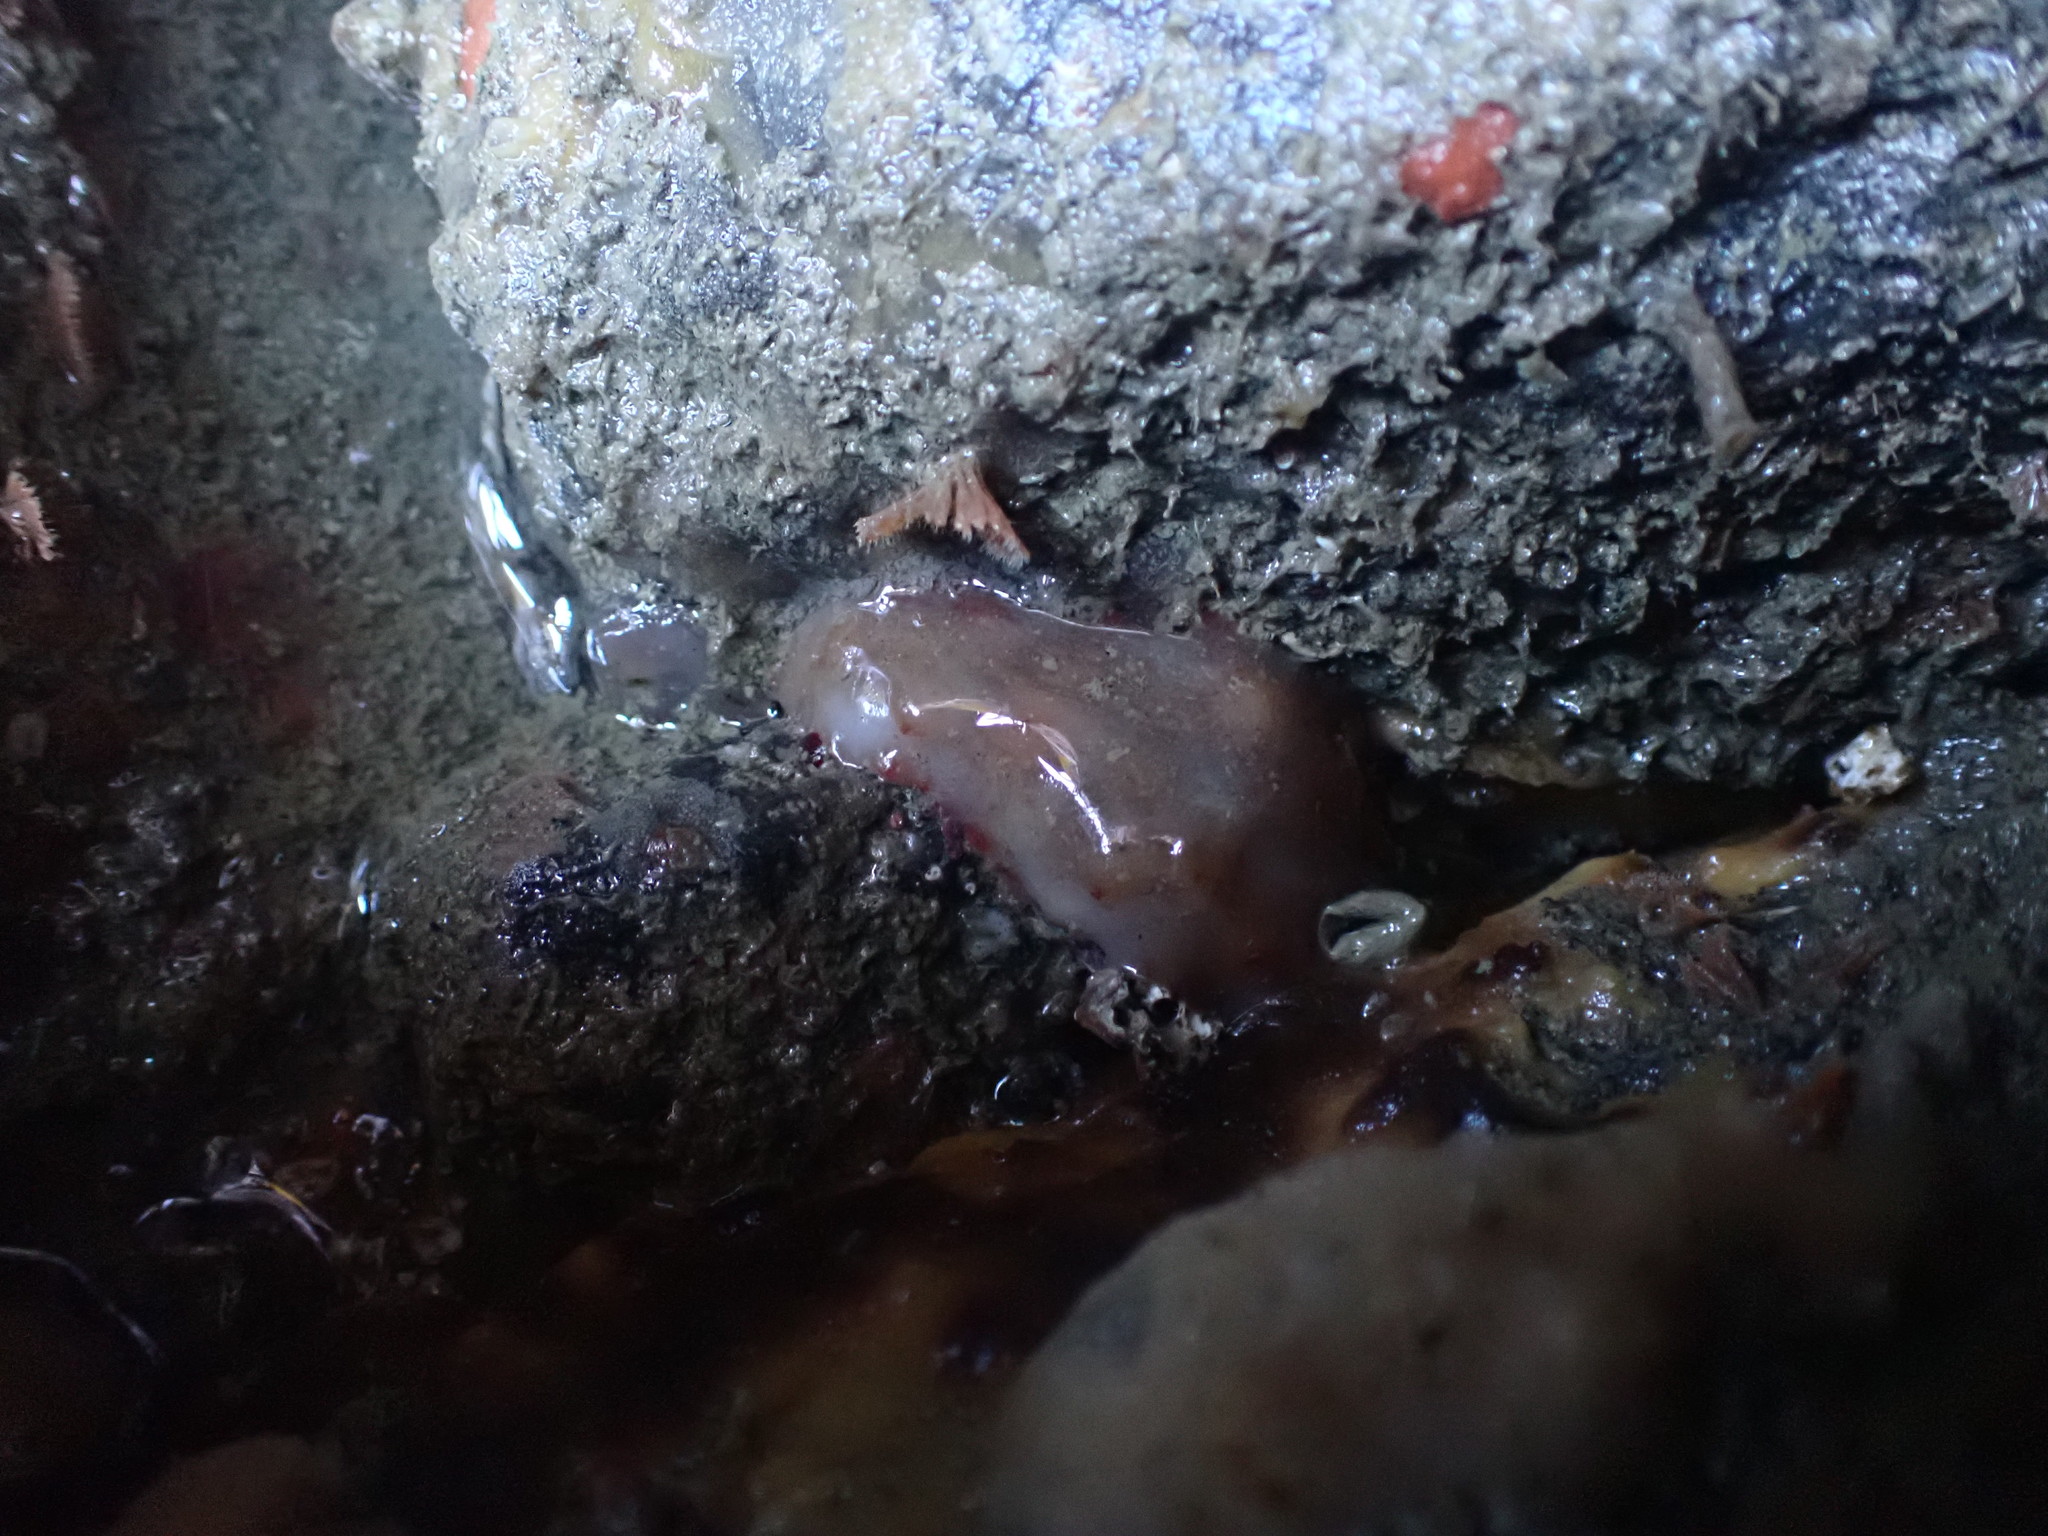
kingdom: Animalia
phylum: Echinodermata
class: Holothuroidea
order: Synallactida
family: Stichopodidae
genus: Australostichopus
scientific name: Australostichopus mollis
